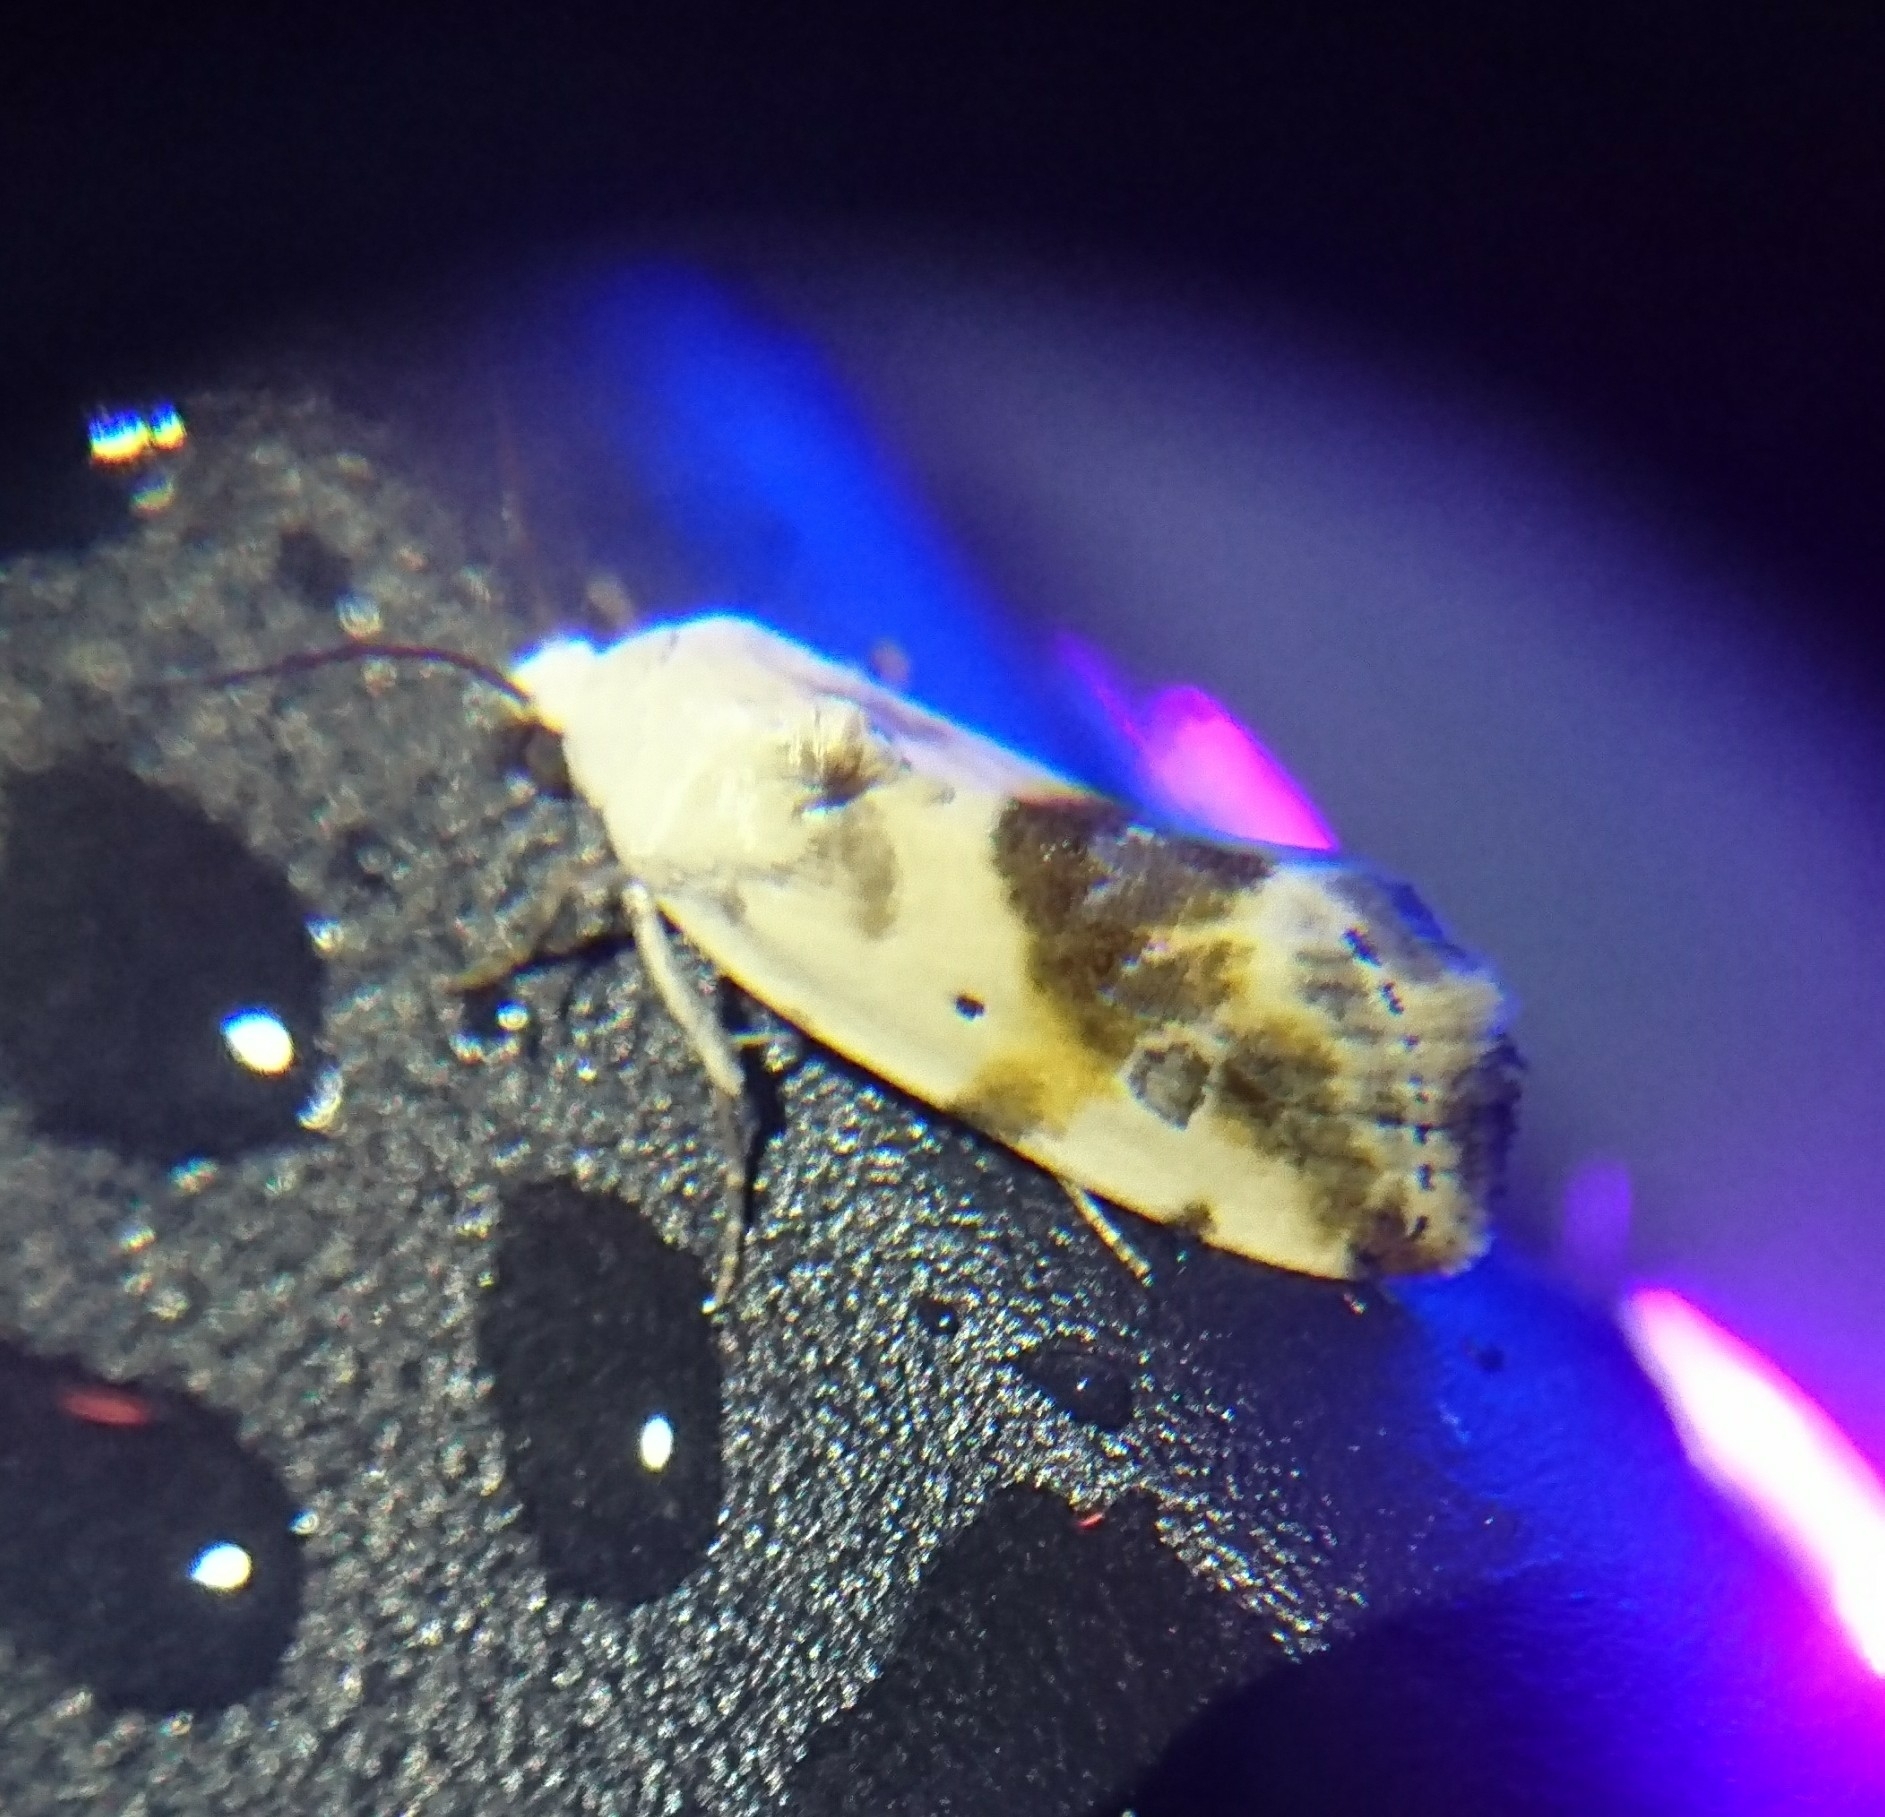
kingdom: Animalia
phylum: Arthropoda
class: Insecta
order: Lepidoptera
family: Noctuidae
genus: Acontia
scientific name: Acontia candefacta
